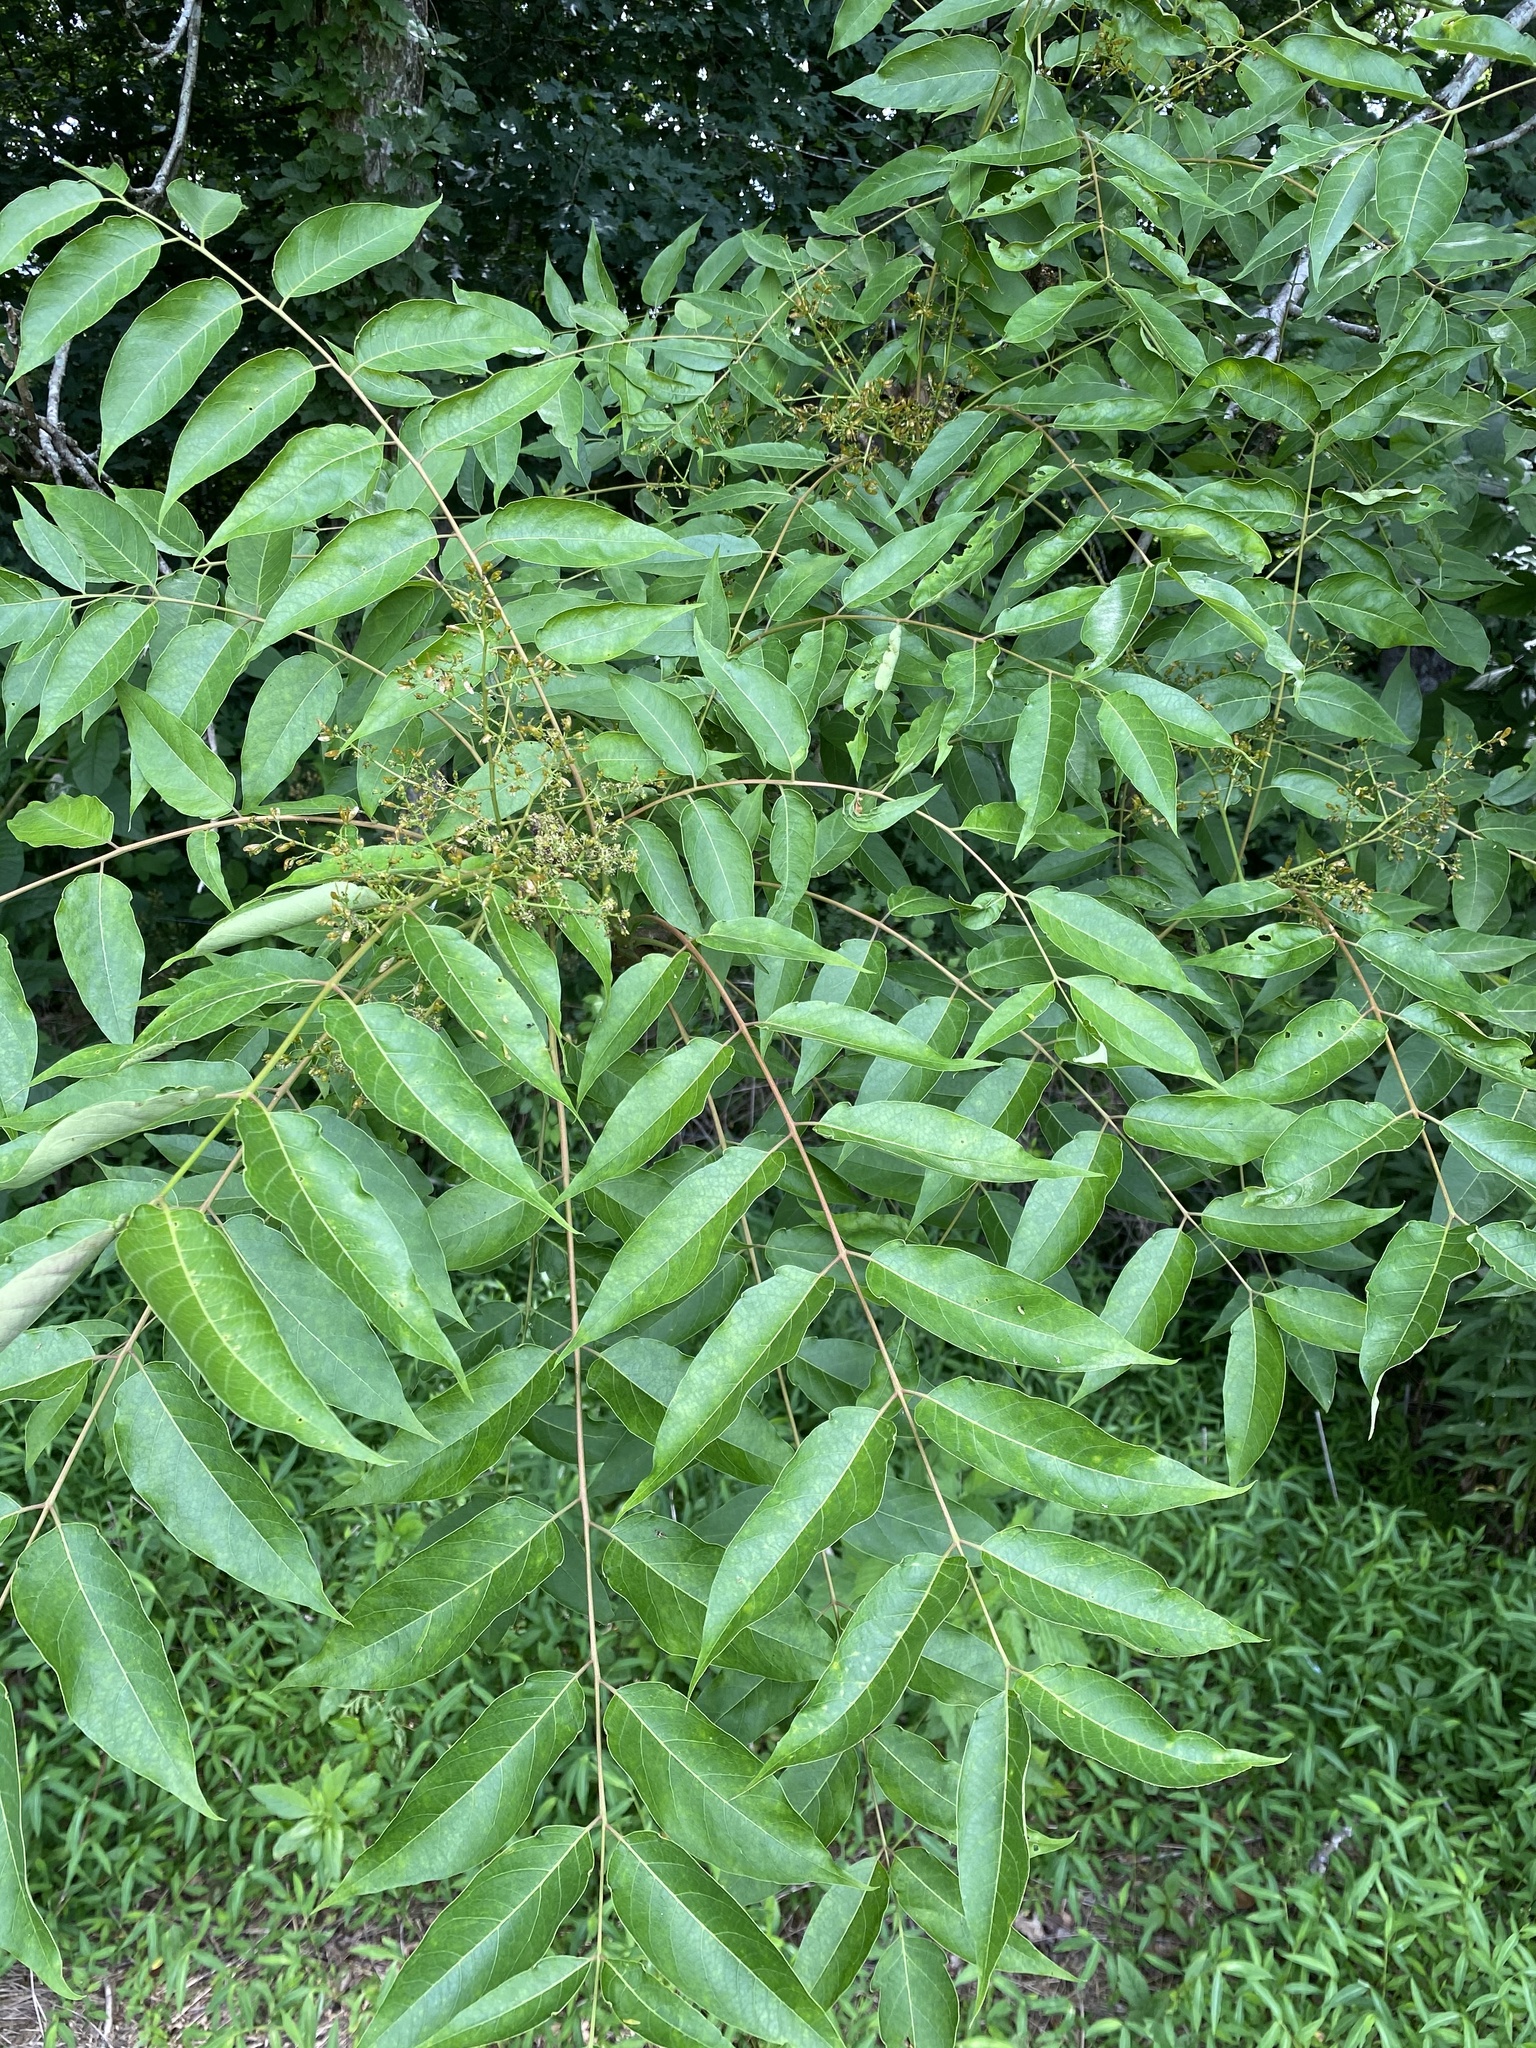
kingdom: Plantae
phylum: Tracheophyta
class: Magnoliopsida
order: Sapindales
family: Simaroubaceae
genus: Ailanthus
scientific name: Ailanthus altissima
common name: Tree-of-heaven
